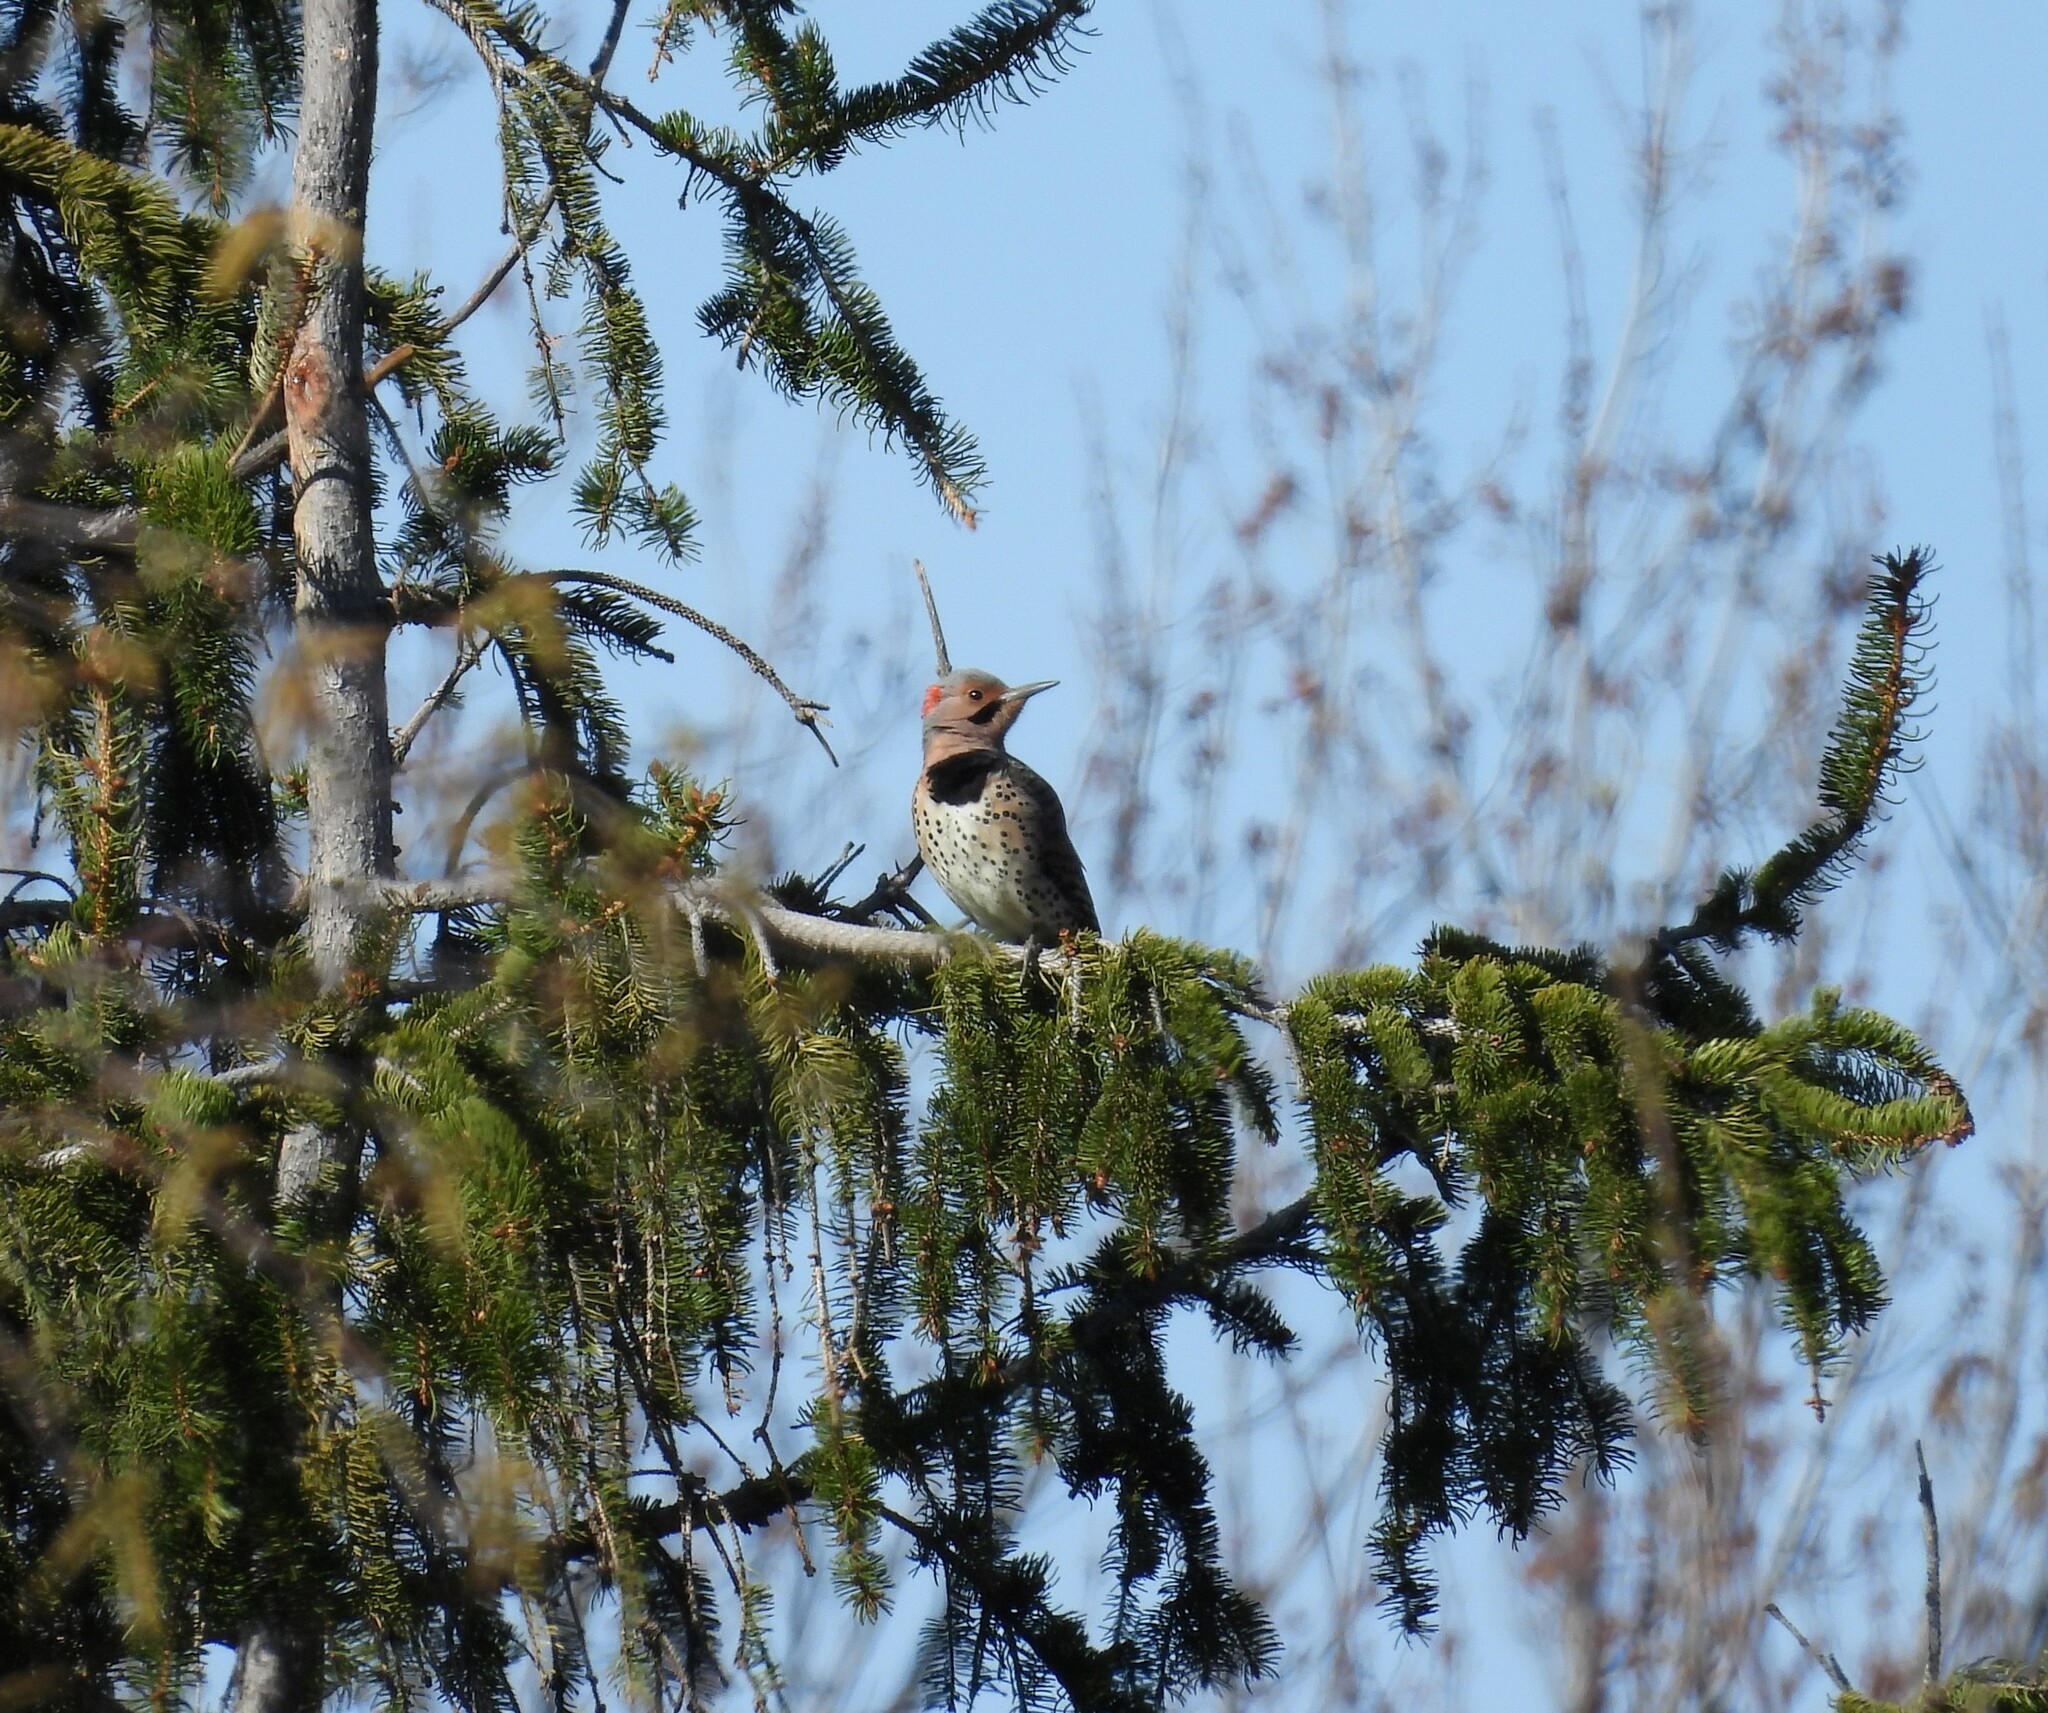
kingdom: Animalia
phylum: Chordata
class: Aves
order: Piciformes
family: Picidae
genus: Colaptes
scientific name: Colaptes auratus
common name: Northern flicker
